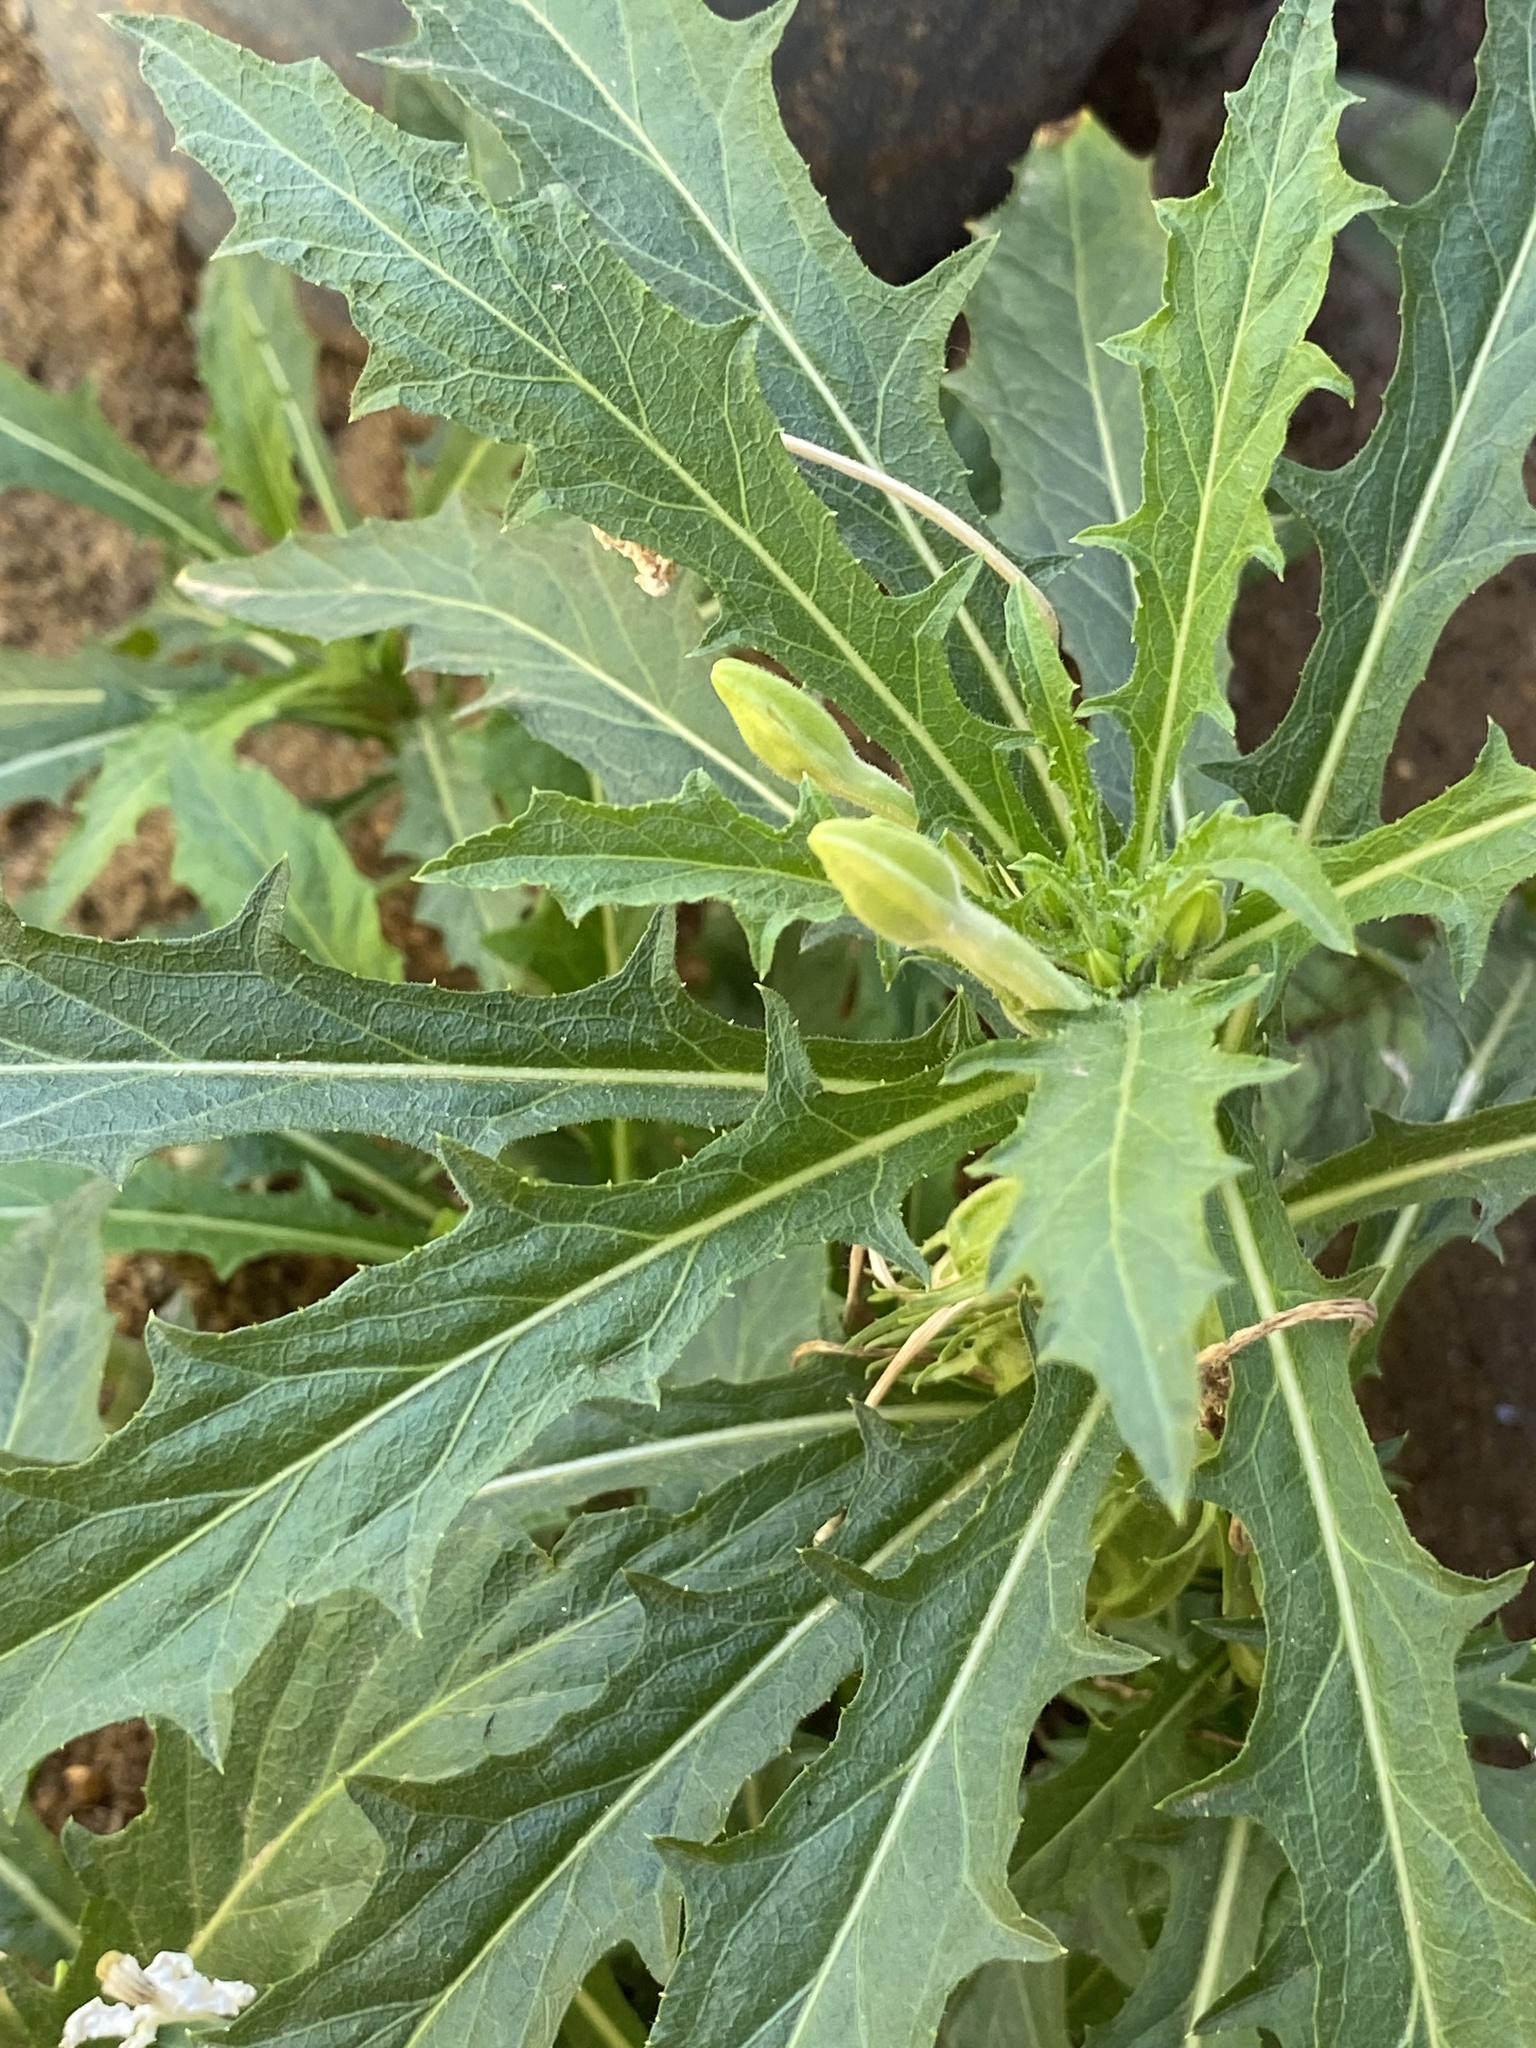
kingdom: Plantae
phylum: Tracheophyta
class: Magnoliopsida
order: Asterales
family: Campanulaceae
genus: Hippobroma
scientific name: Hippobroma longiflora
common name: Madamfate
